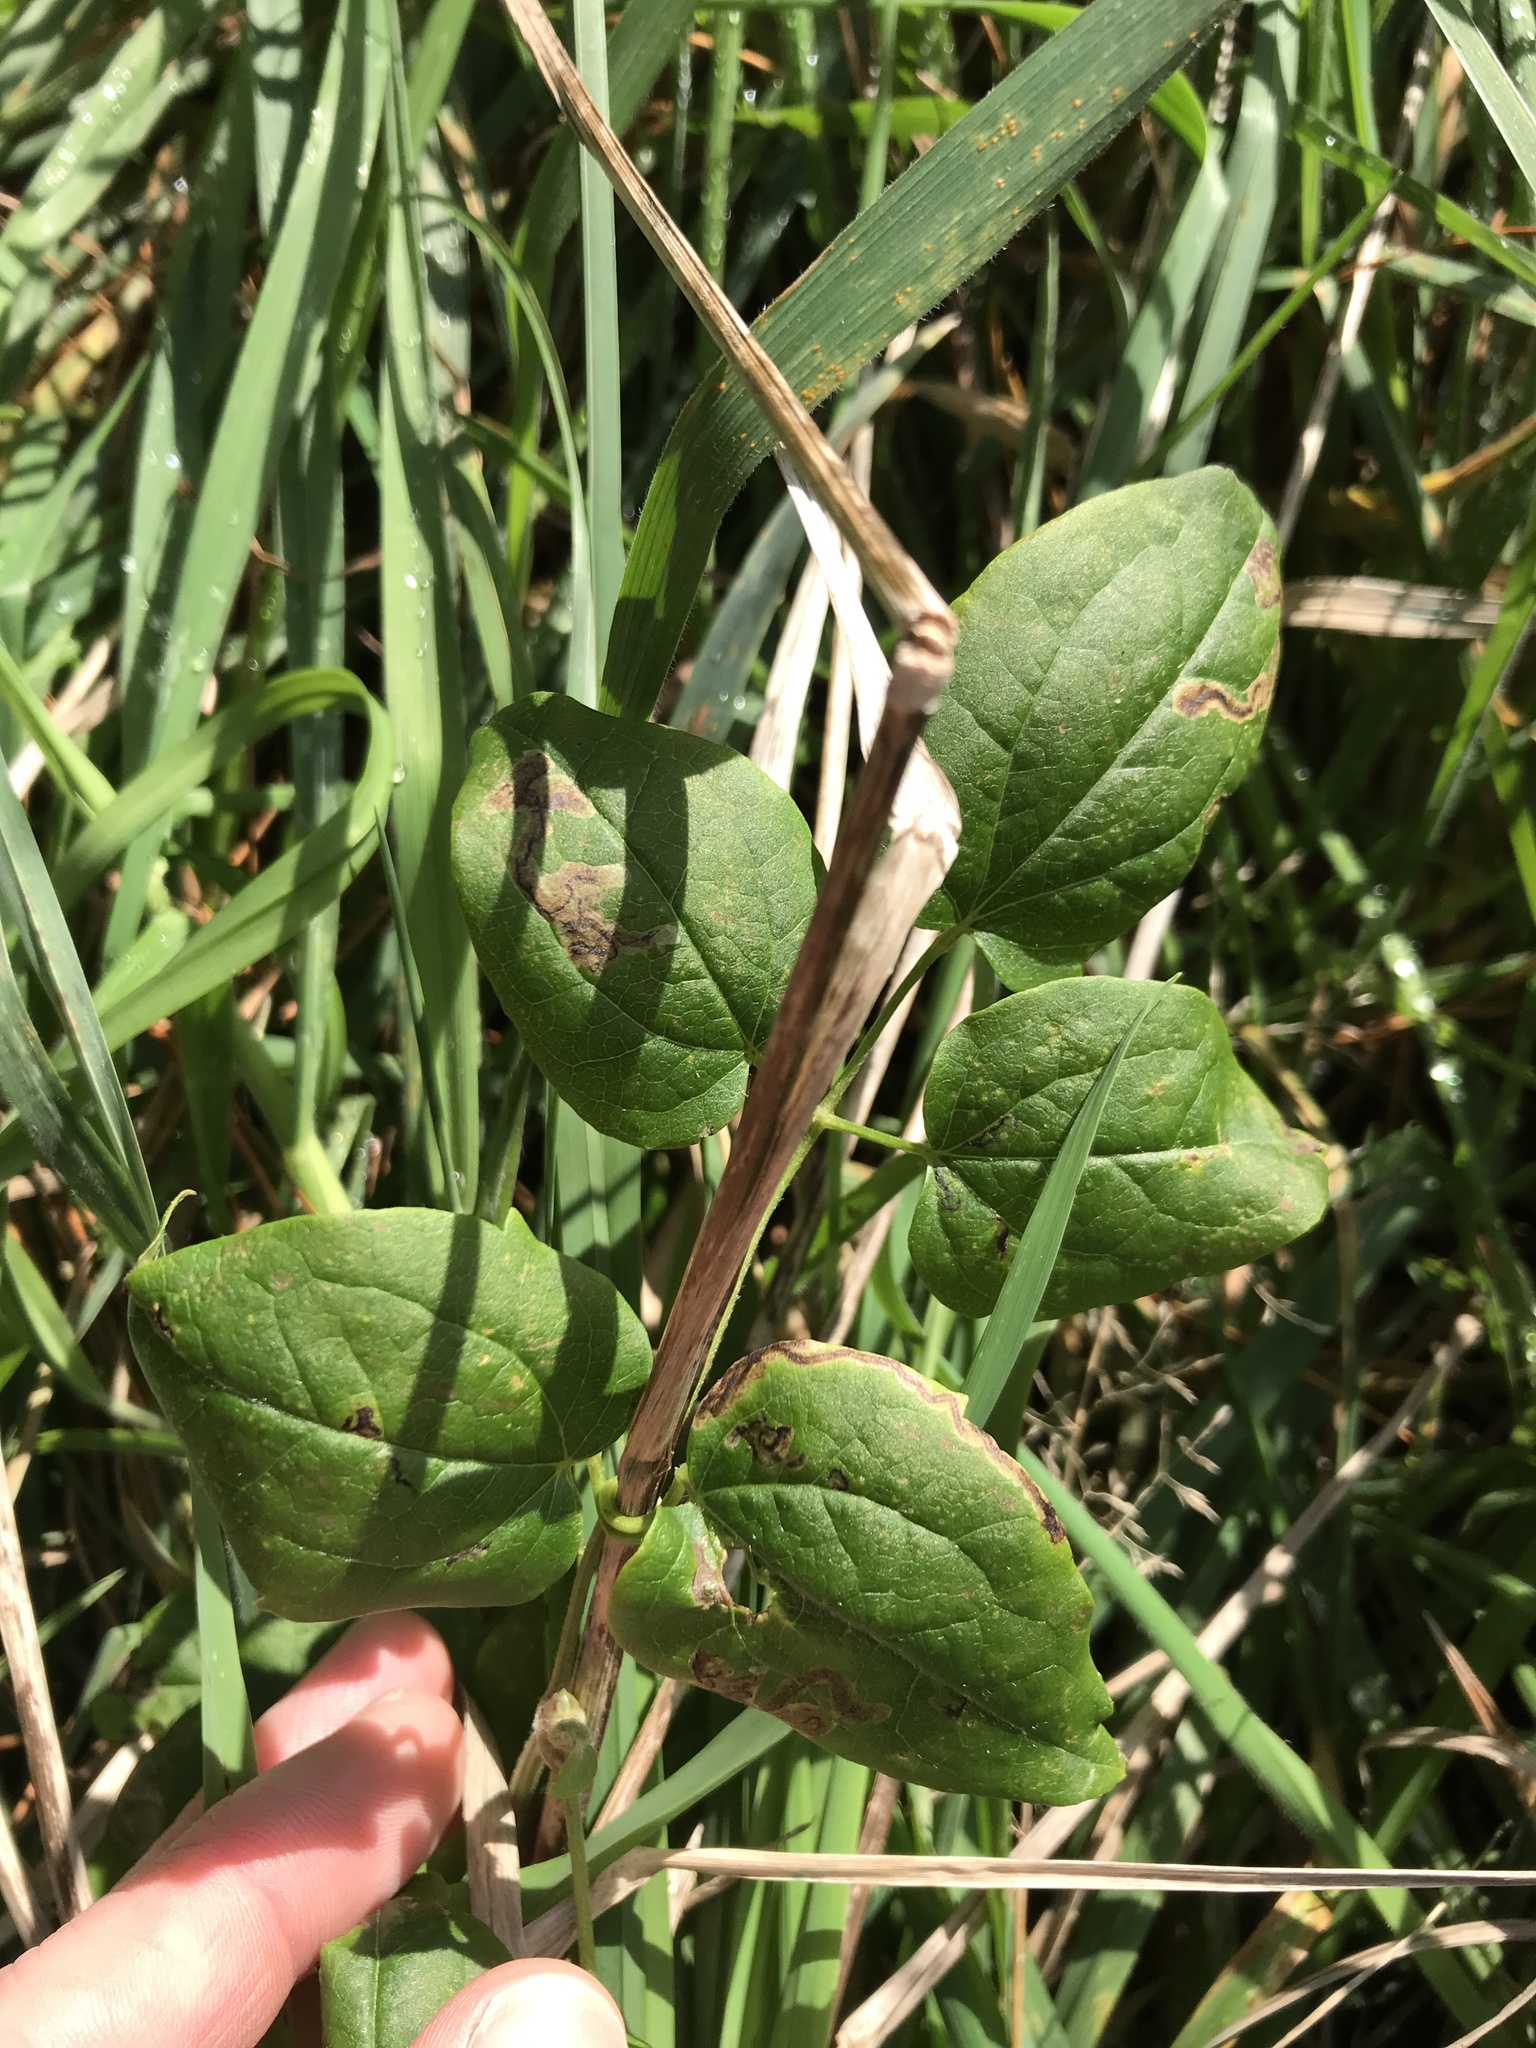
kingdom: Plantae
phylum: Tracheophyta
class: Magnoliopsida
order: Ranunculales
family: Ranunculaceae
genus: Clematis
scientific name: Clematis vitalba
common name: Evergreen clematis
